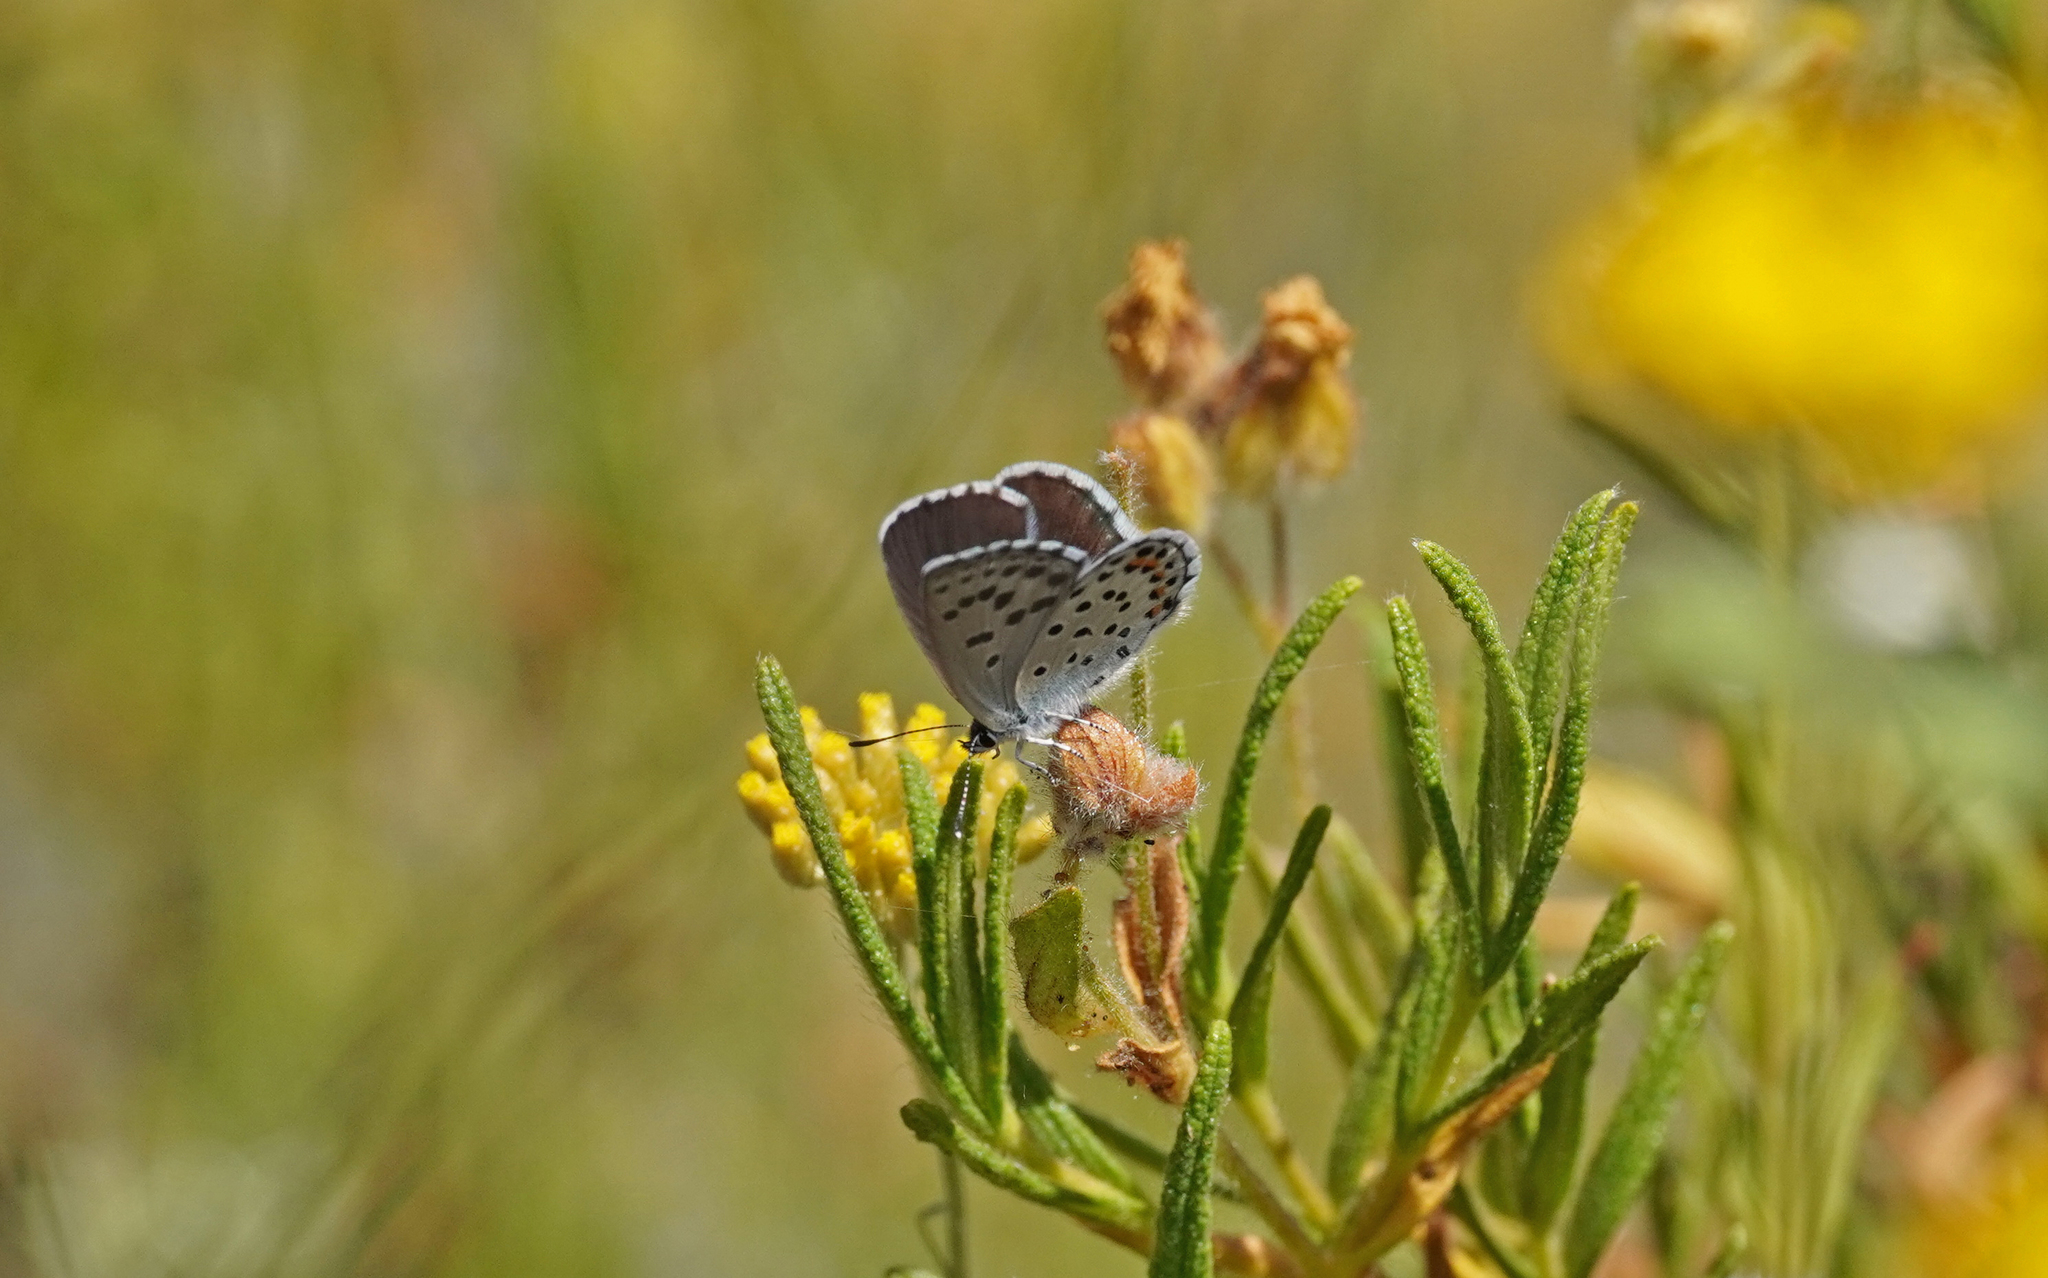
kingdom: Animalia
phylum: Arthropoda
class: Insecta
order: Lepidoptera
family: Lycaenidae
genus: Pseudophilotes
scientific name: Pseudophilotes baton
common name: Baton blue
